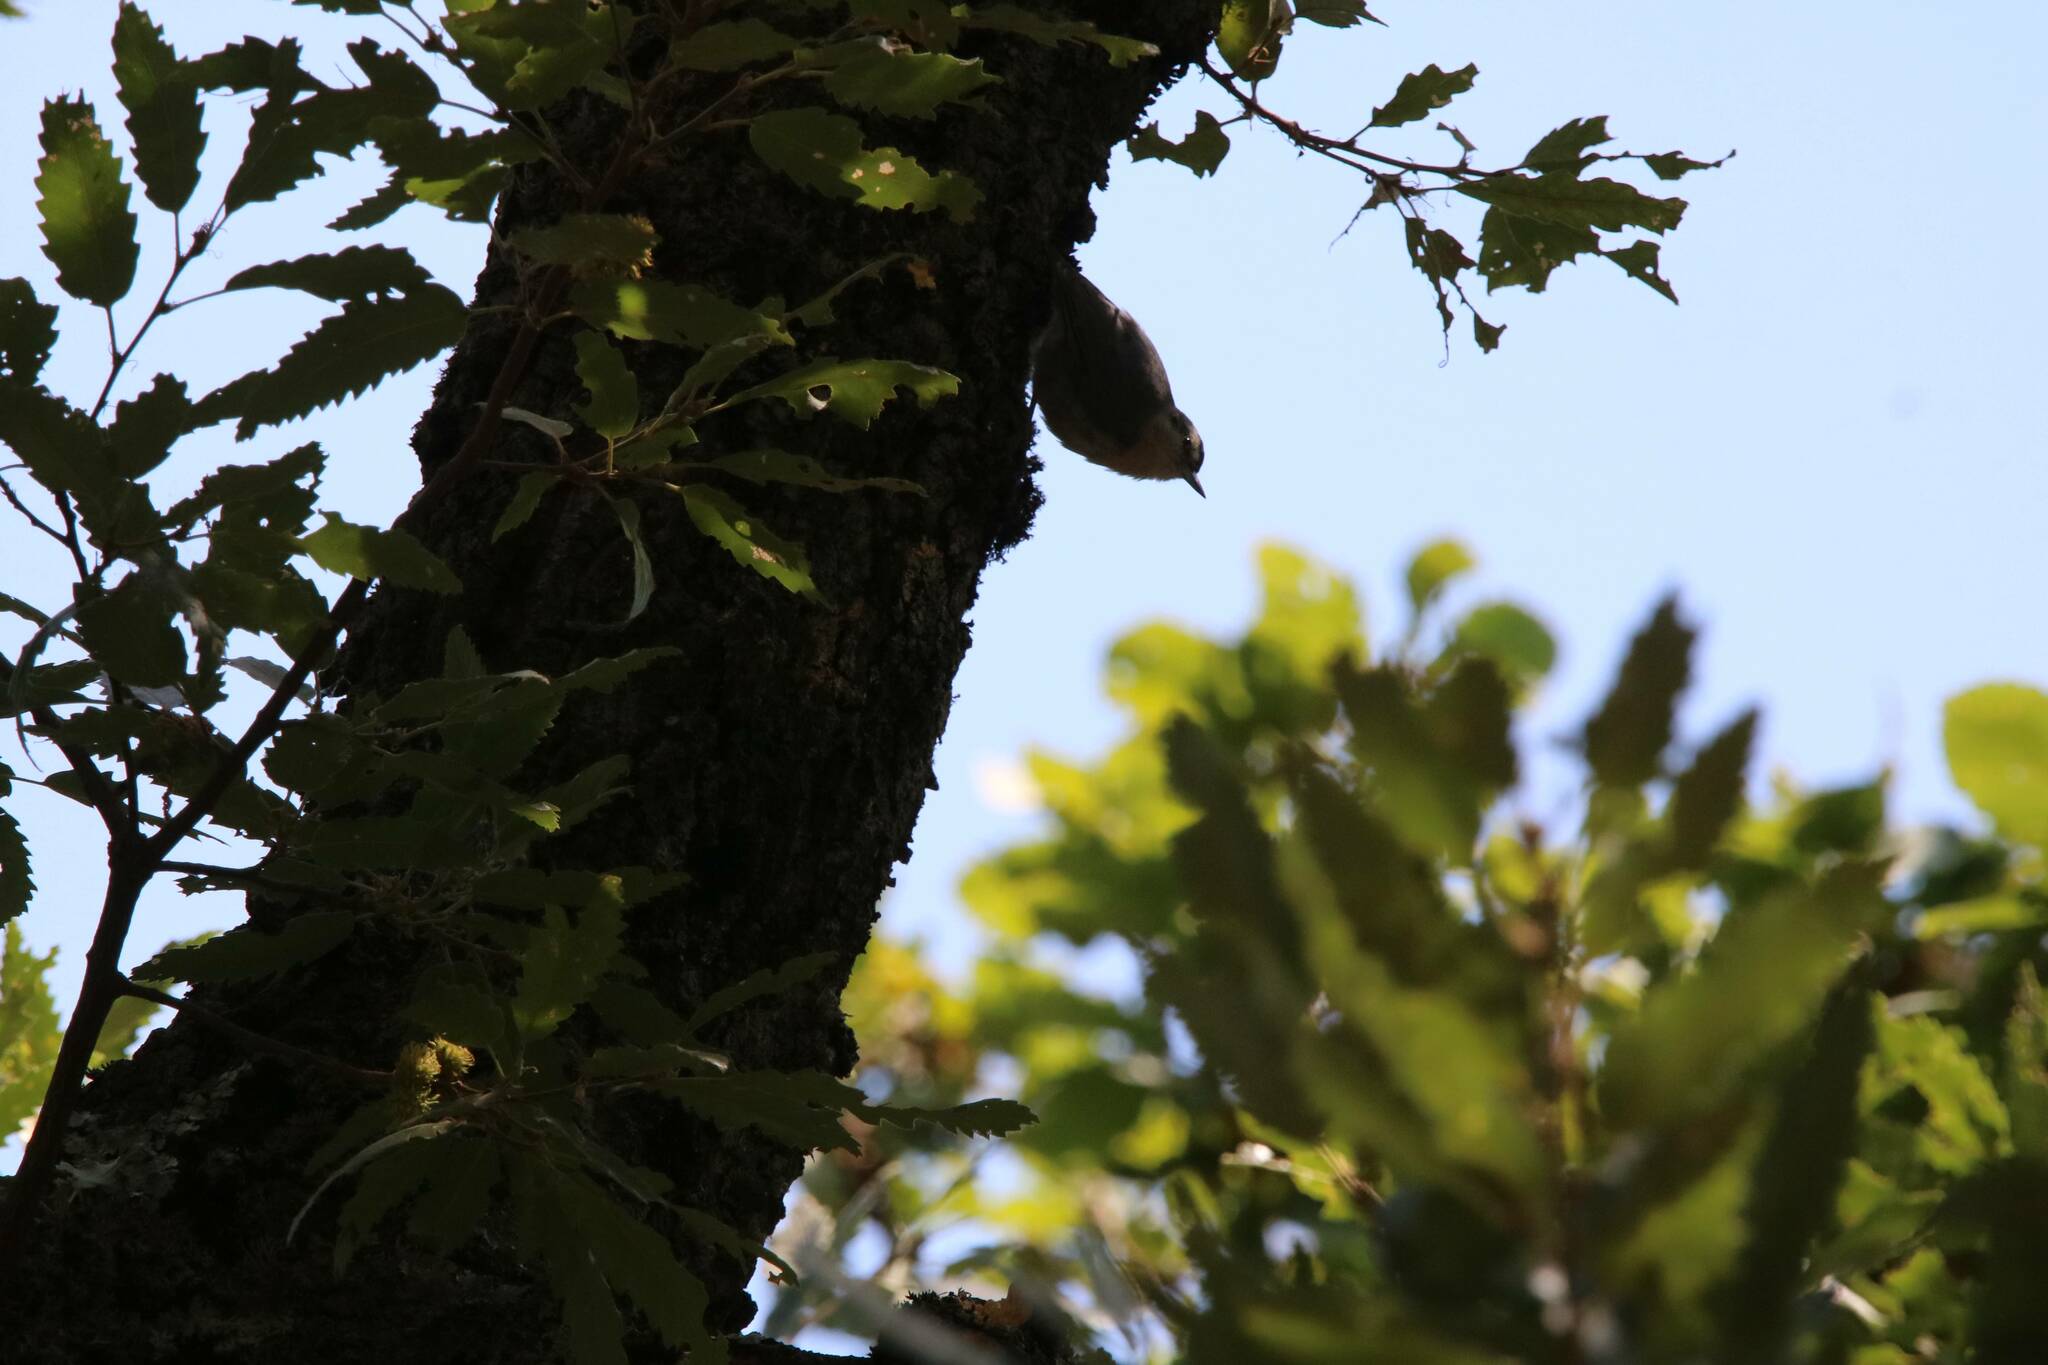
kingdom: Animalia
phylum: Chordata
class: Aves
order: Passeriformes
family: Sittidae
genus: Sitta
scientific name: Sitta ledanti
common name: Algerian nuthatch
